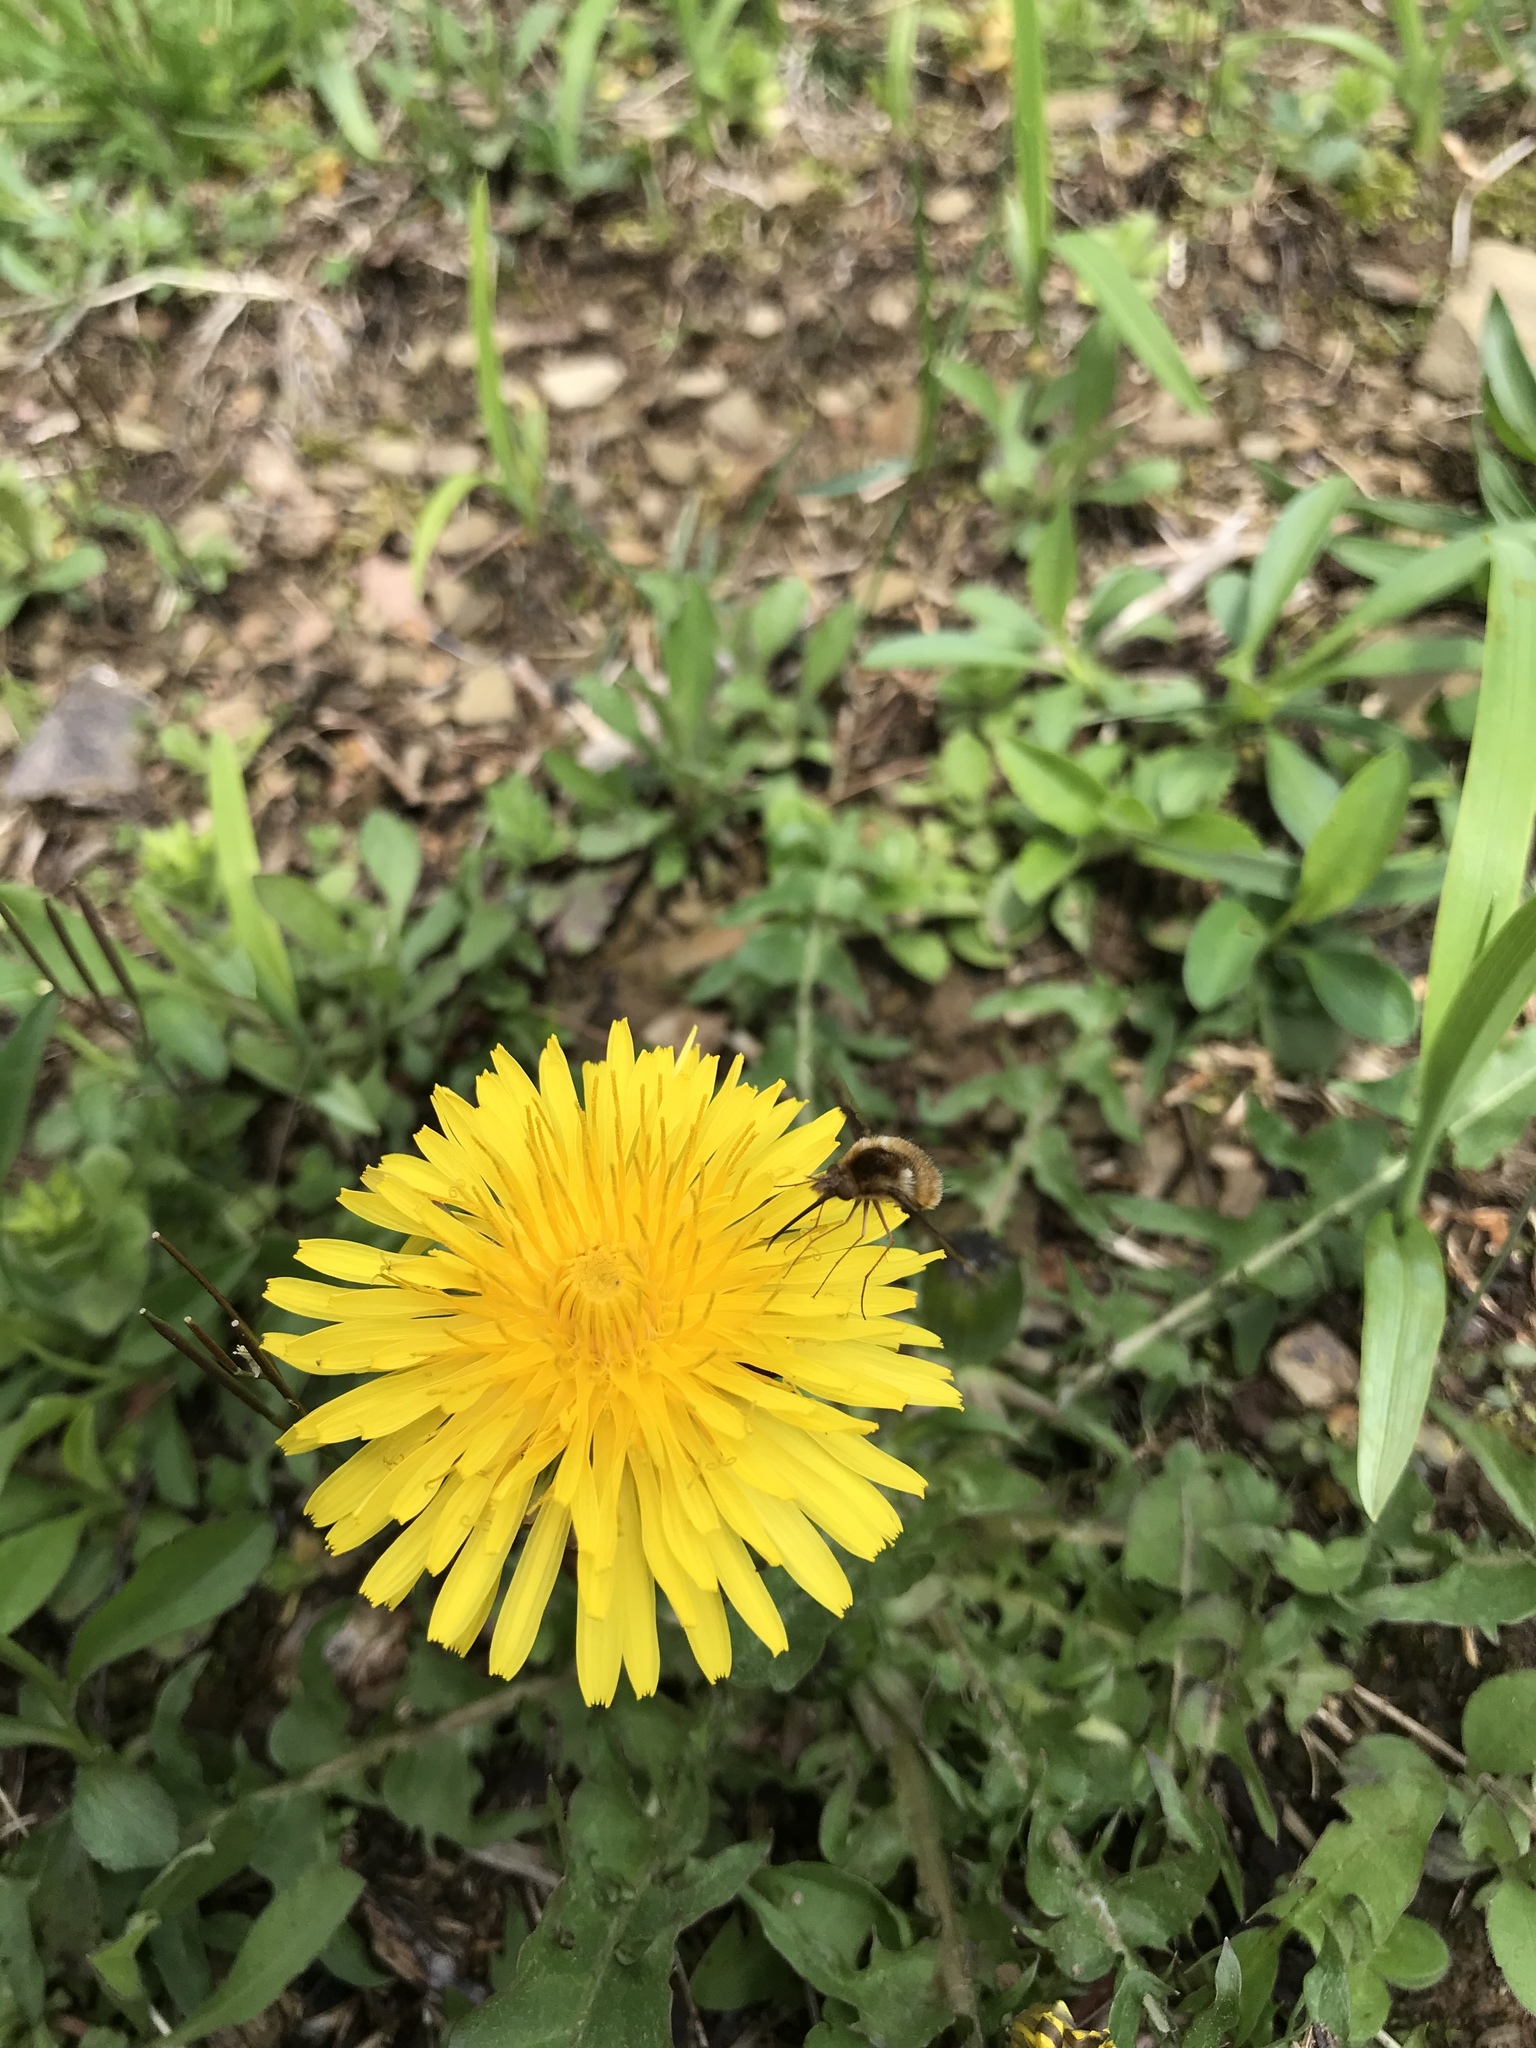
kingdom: Animalia
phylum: Arthropoda
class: Insecta
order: Diptera
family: Bombyliidae
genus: Bombylius
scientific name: Bombylius major
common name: Bee fly
